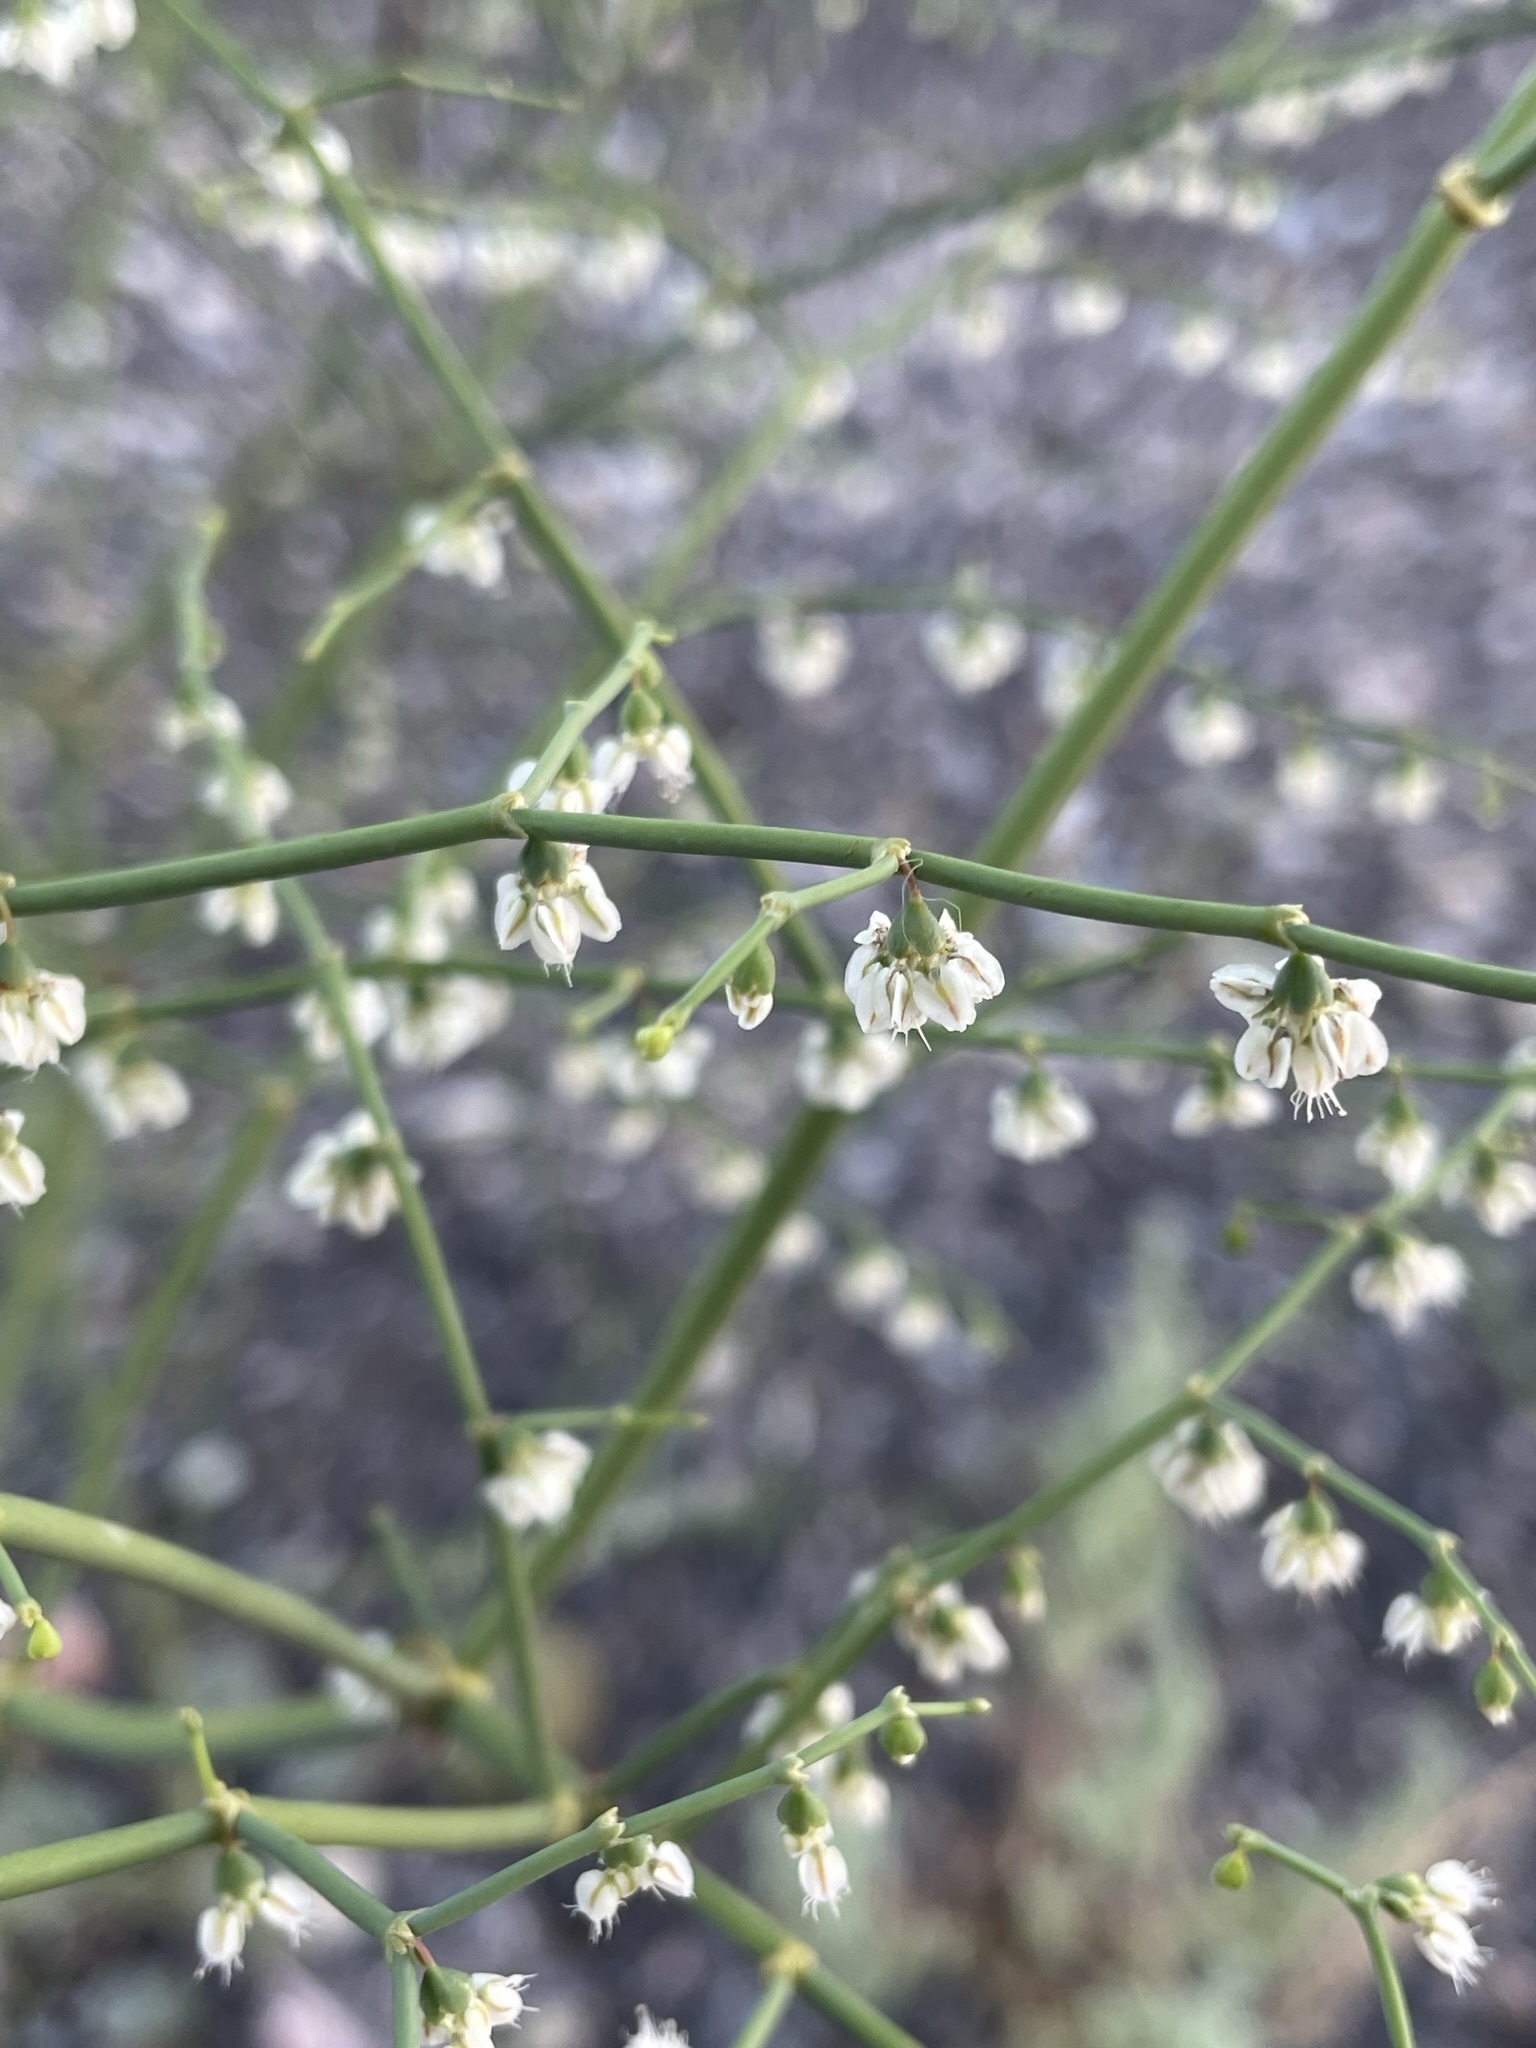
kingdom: Plantae
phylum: Tracheophyta
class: Magnoliopsida
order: Caryophyllales
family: Polygonaceae
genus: Eriogonum
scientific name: Eriogonum deflexum
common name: Skeleton-weed
